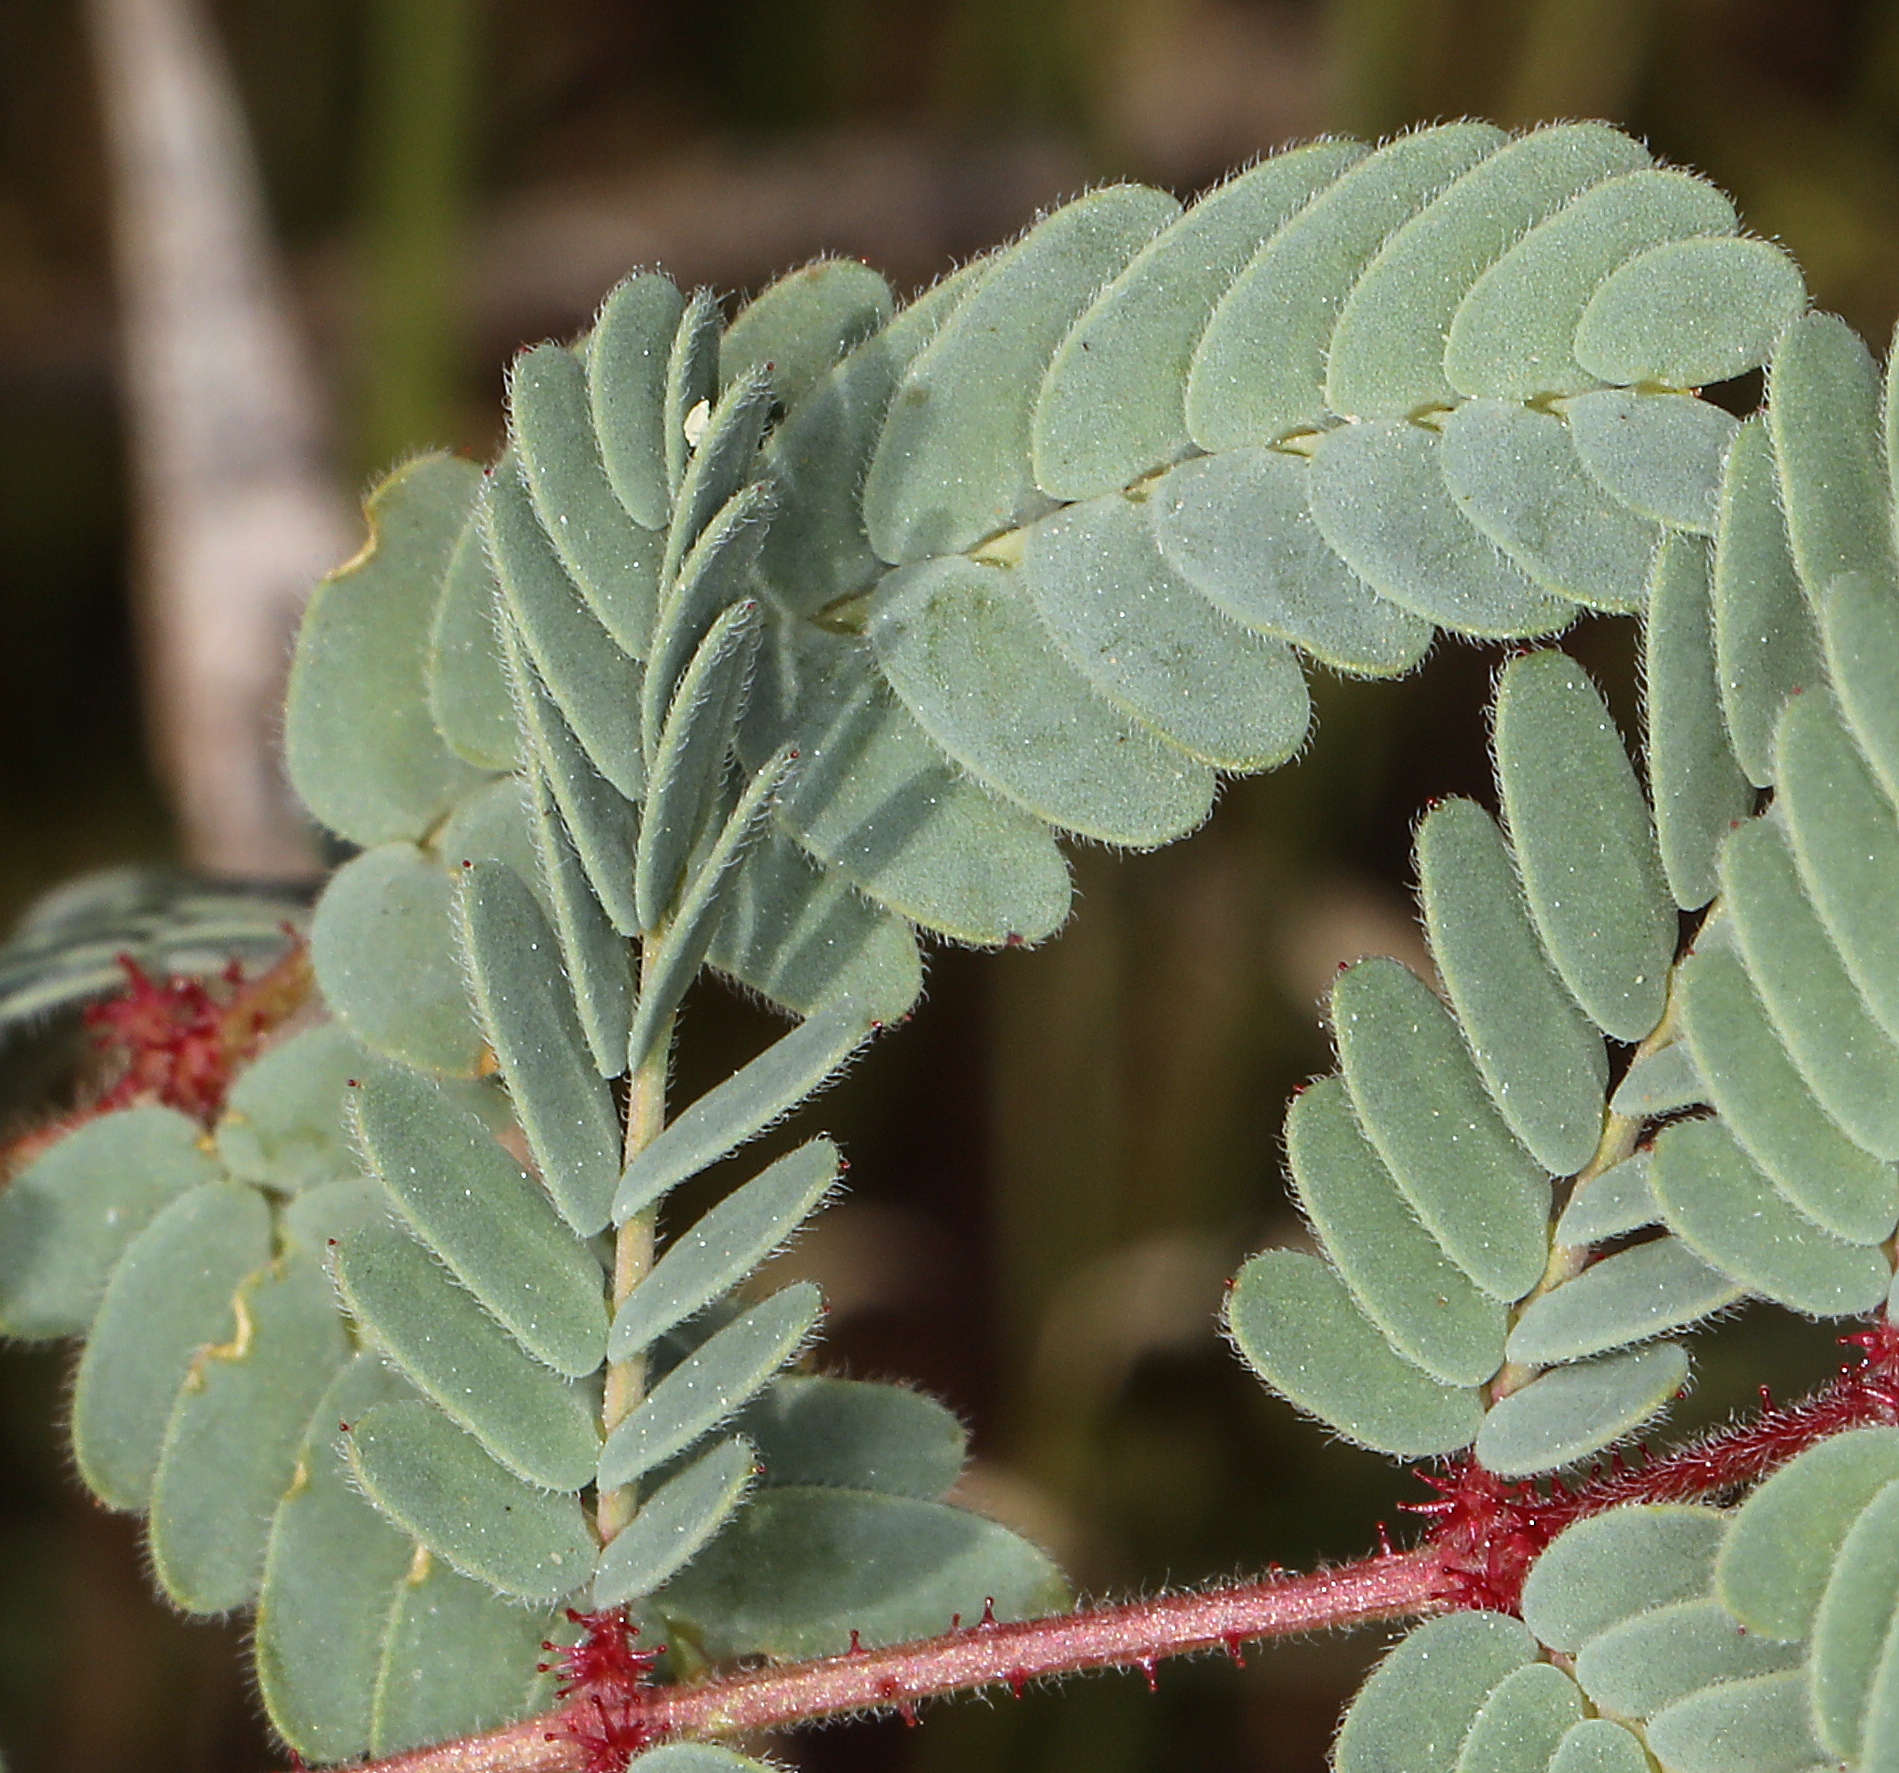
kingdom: Plantae
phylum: Tracheophyta
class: Magnoliopsida
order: Fabales
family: Fabaceae
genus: Hoffmannseggia
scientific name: Hoffmannseggia glauca
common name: Pignut
